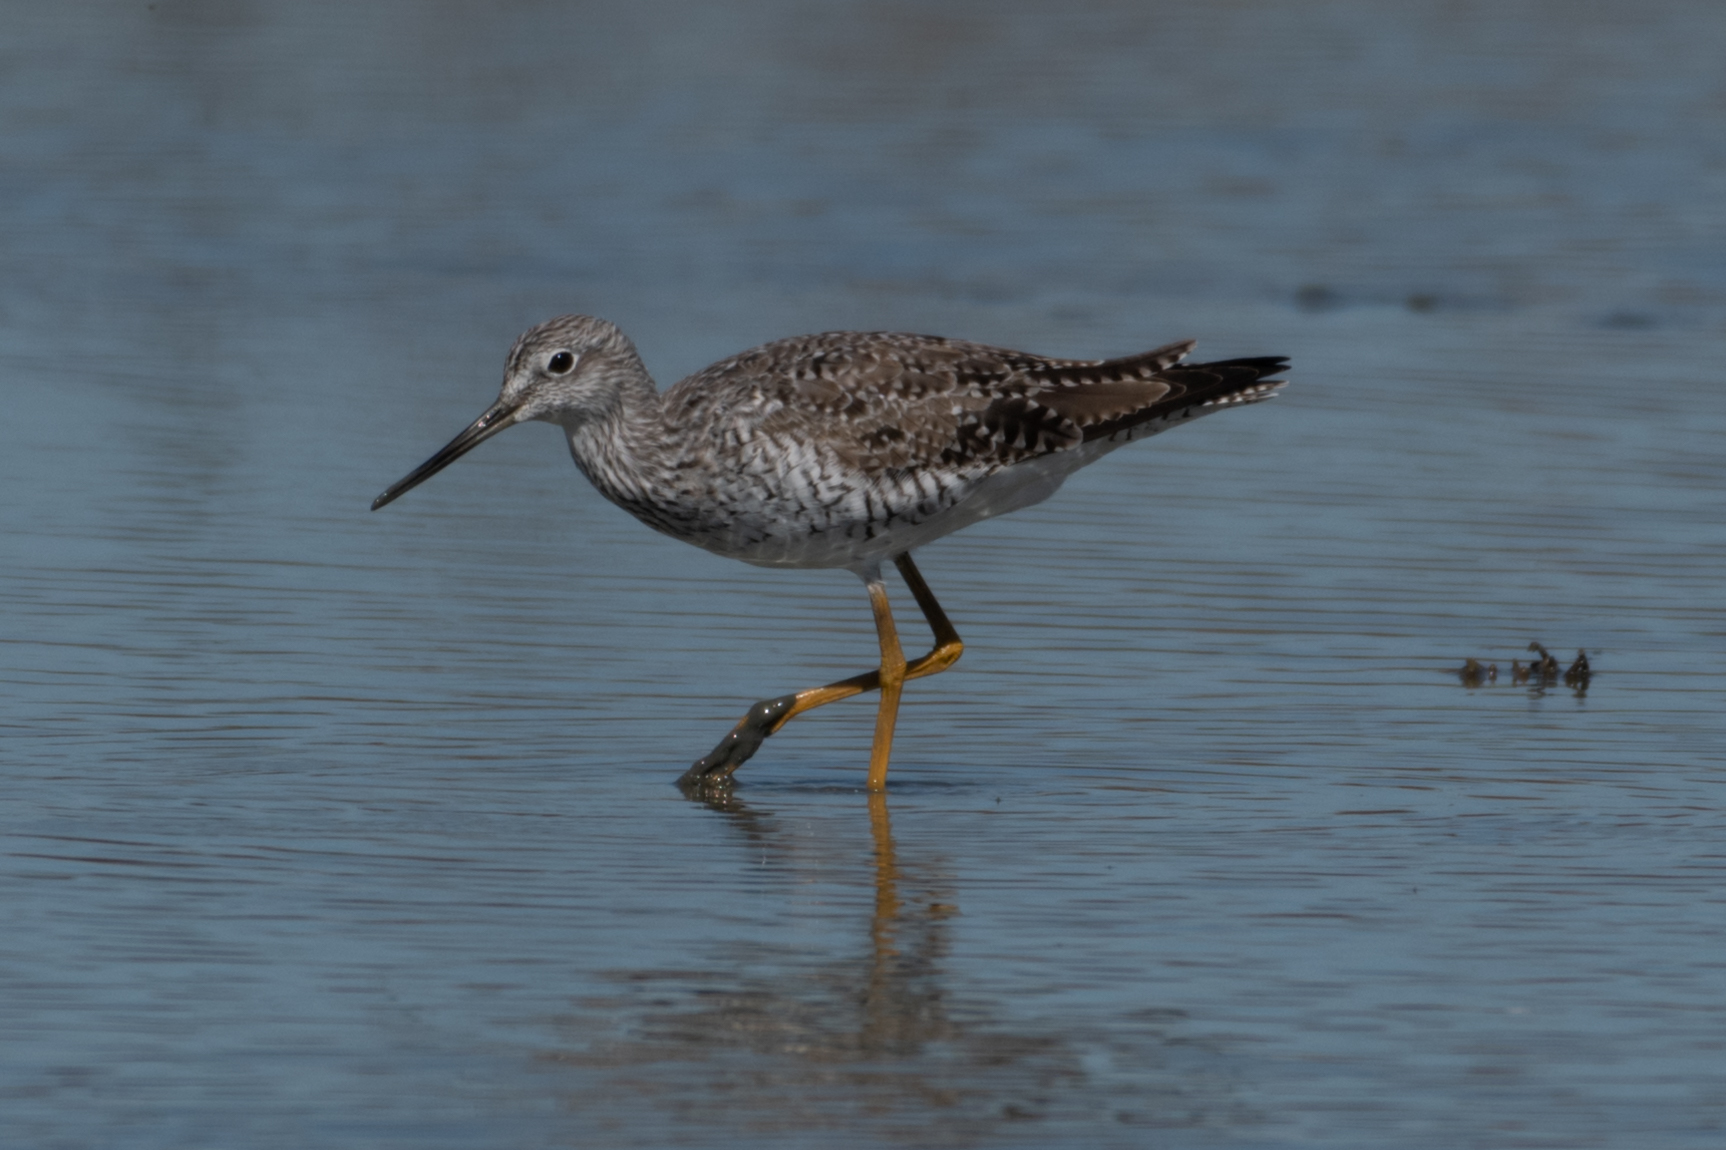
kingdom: Animalia
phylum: Chordata
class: Aves
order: Charadriiformes
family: Scolopacidae
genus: Tringa
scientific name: Tringa melanoleuca
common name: Greater yellowlegs
